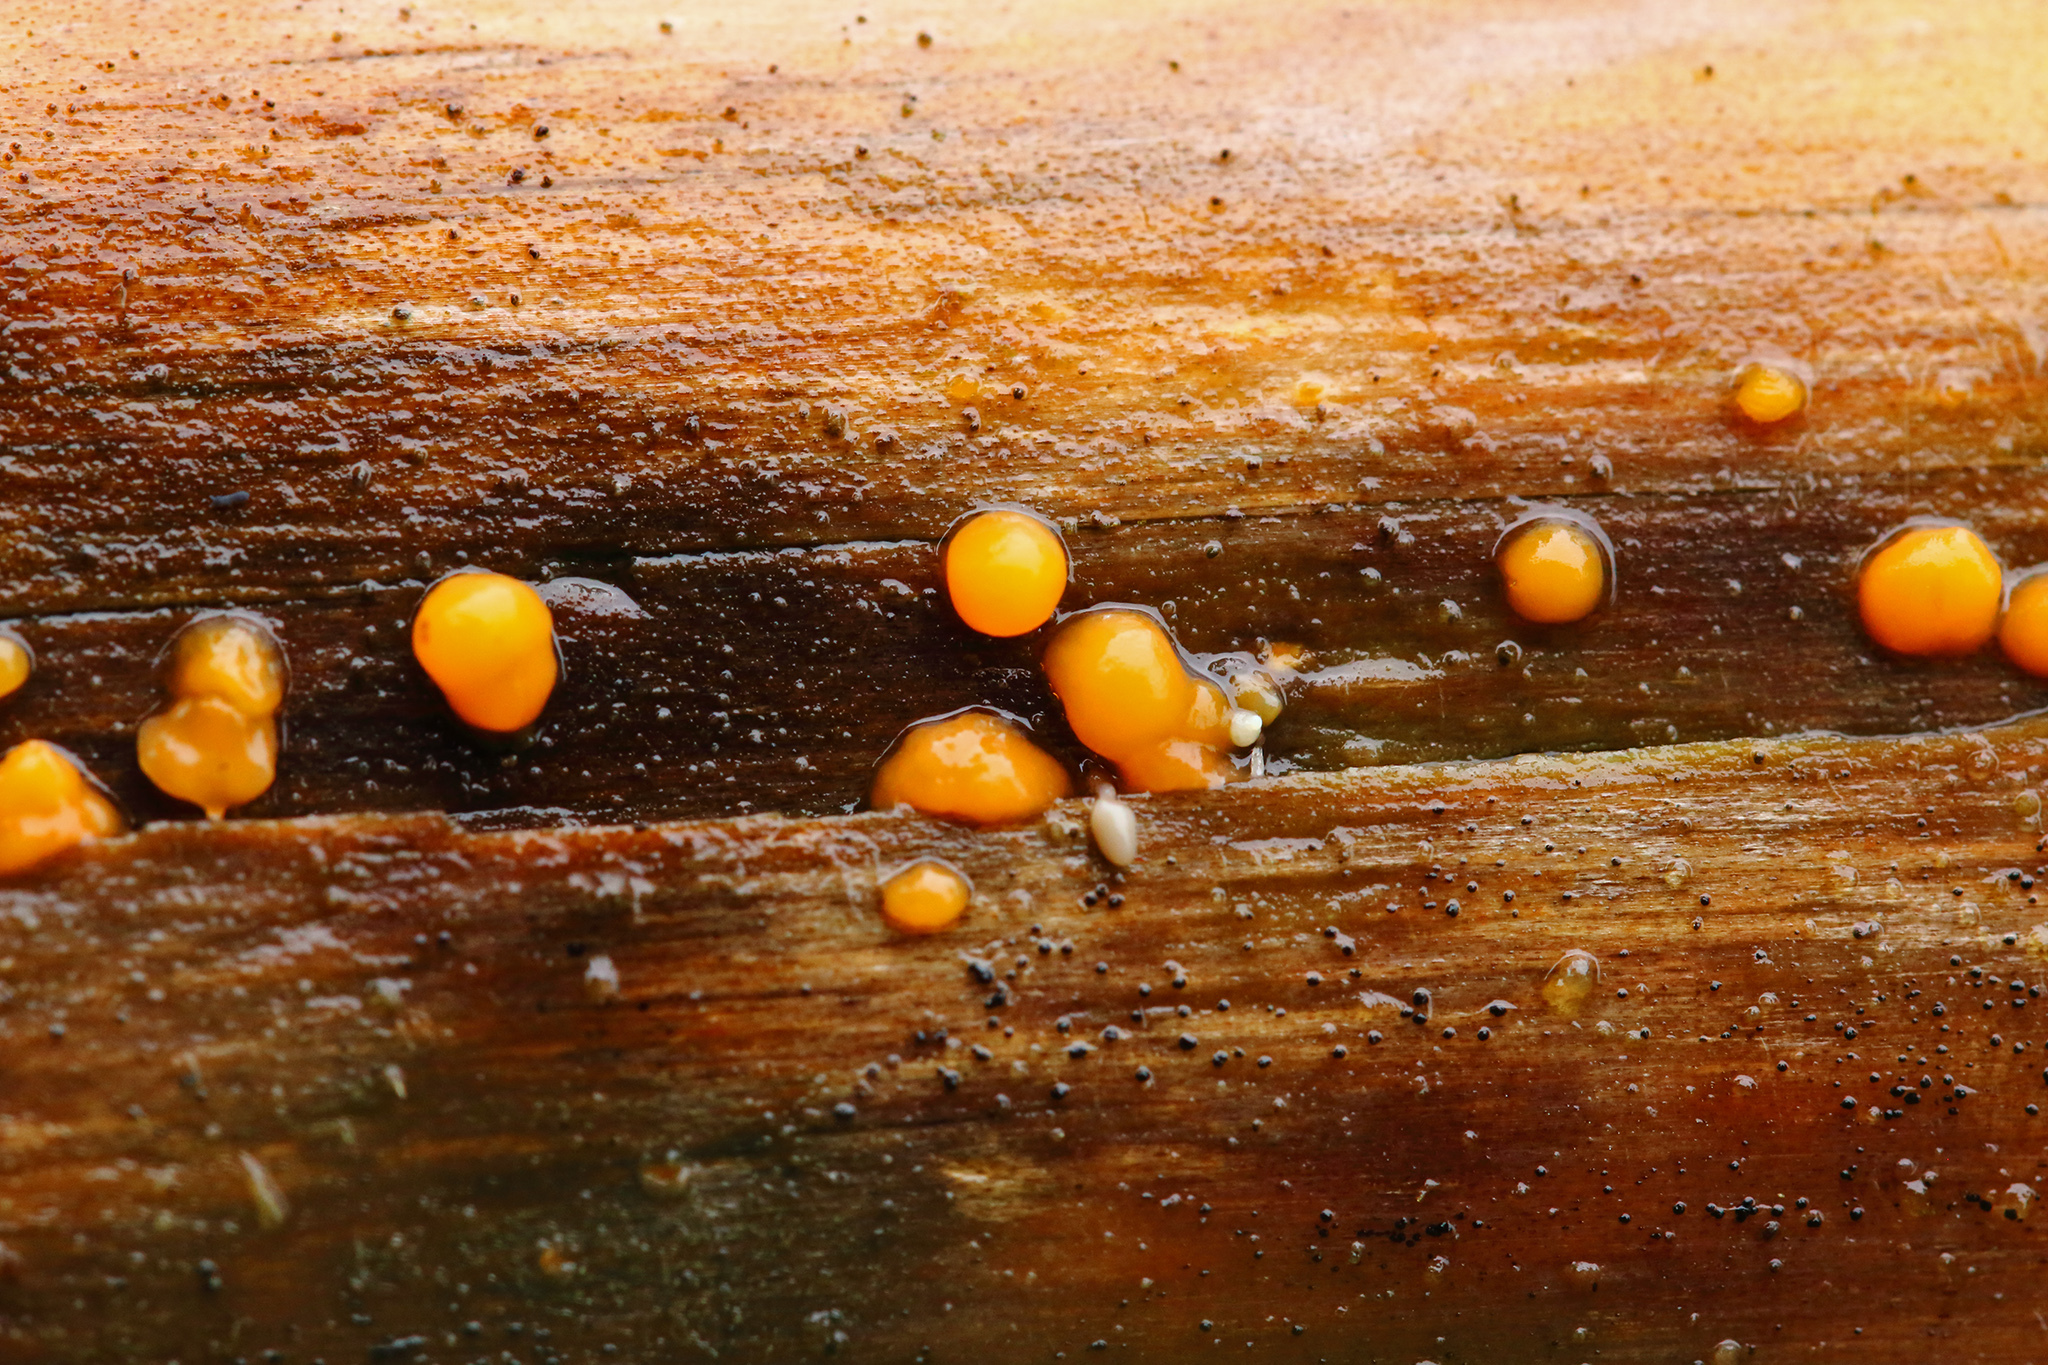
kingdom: Fungi
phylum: Basidiomycota
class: Dacrymycetes
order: Dacrymycetales
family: Dacrymycetaceae
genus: Dacrymyces
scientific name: Dacrymyces stillatus
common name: Common jelly spot
